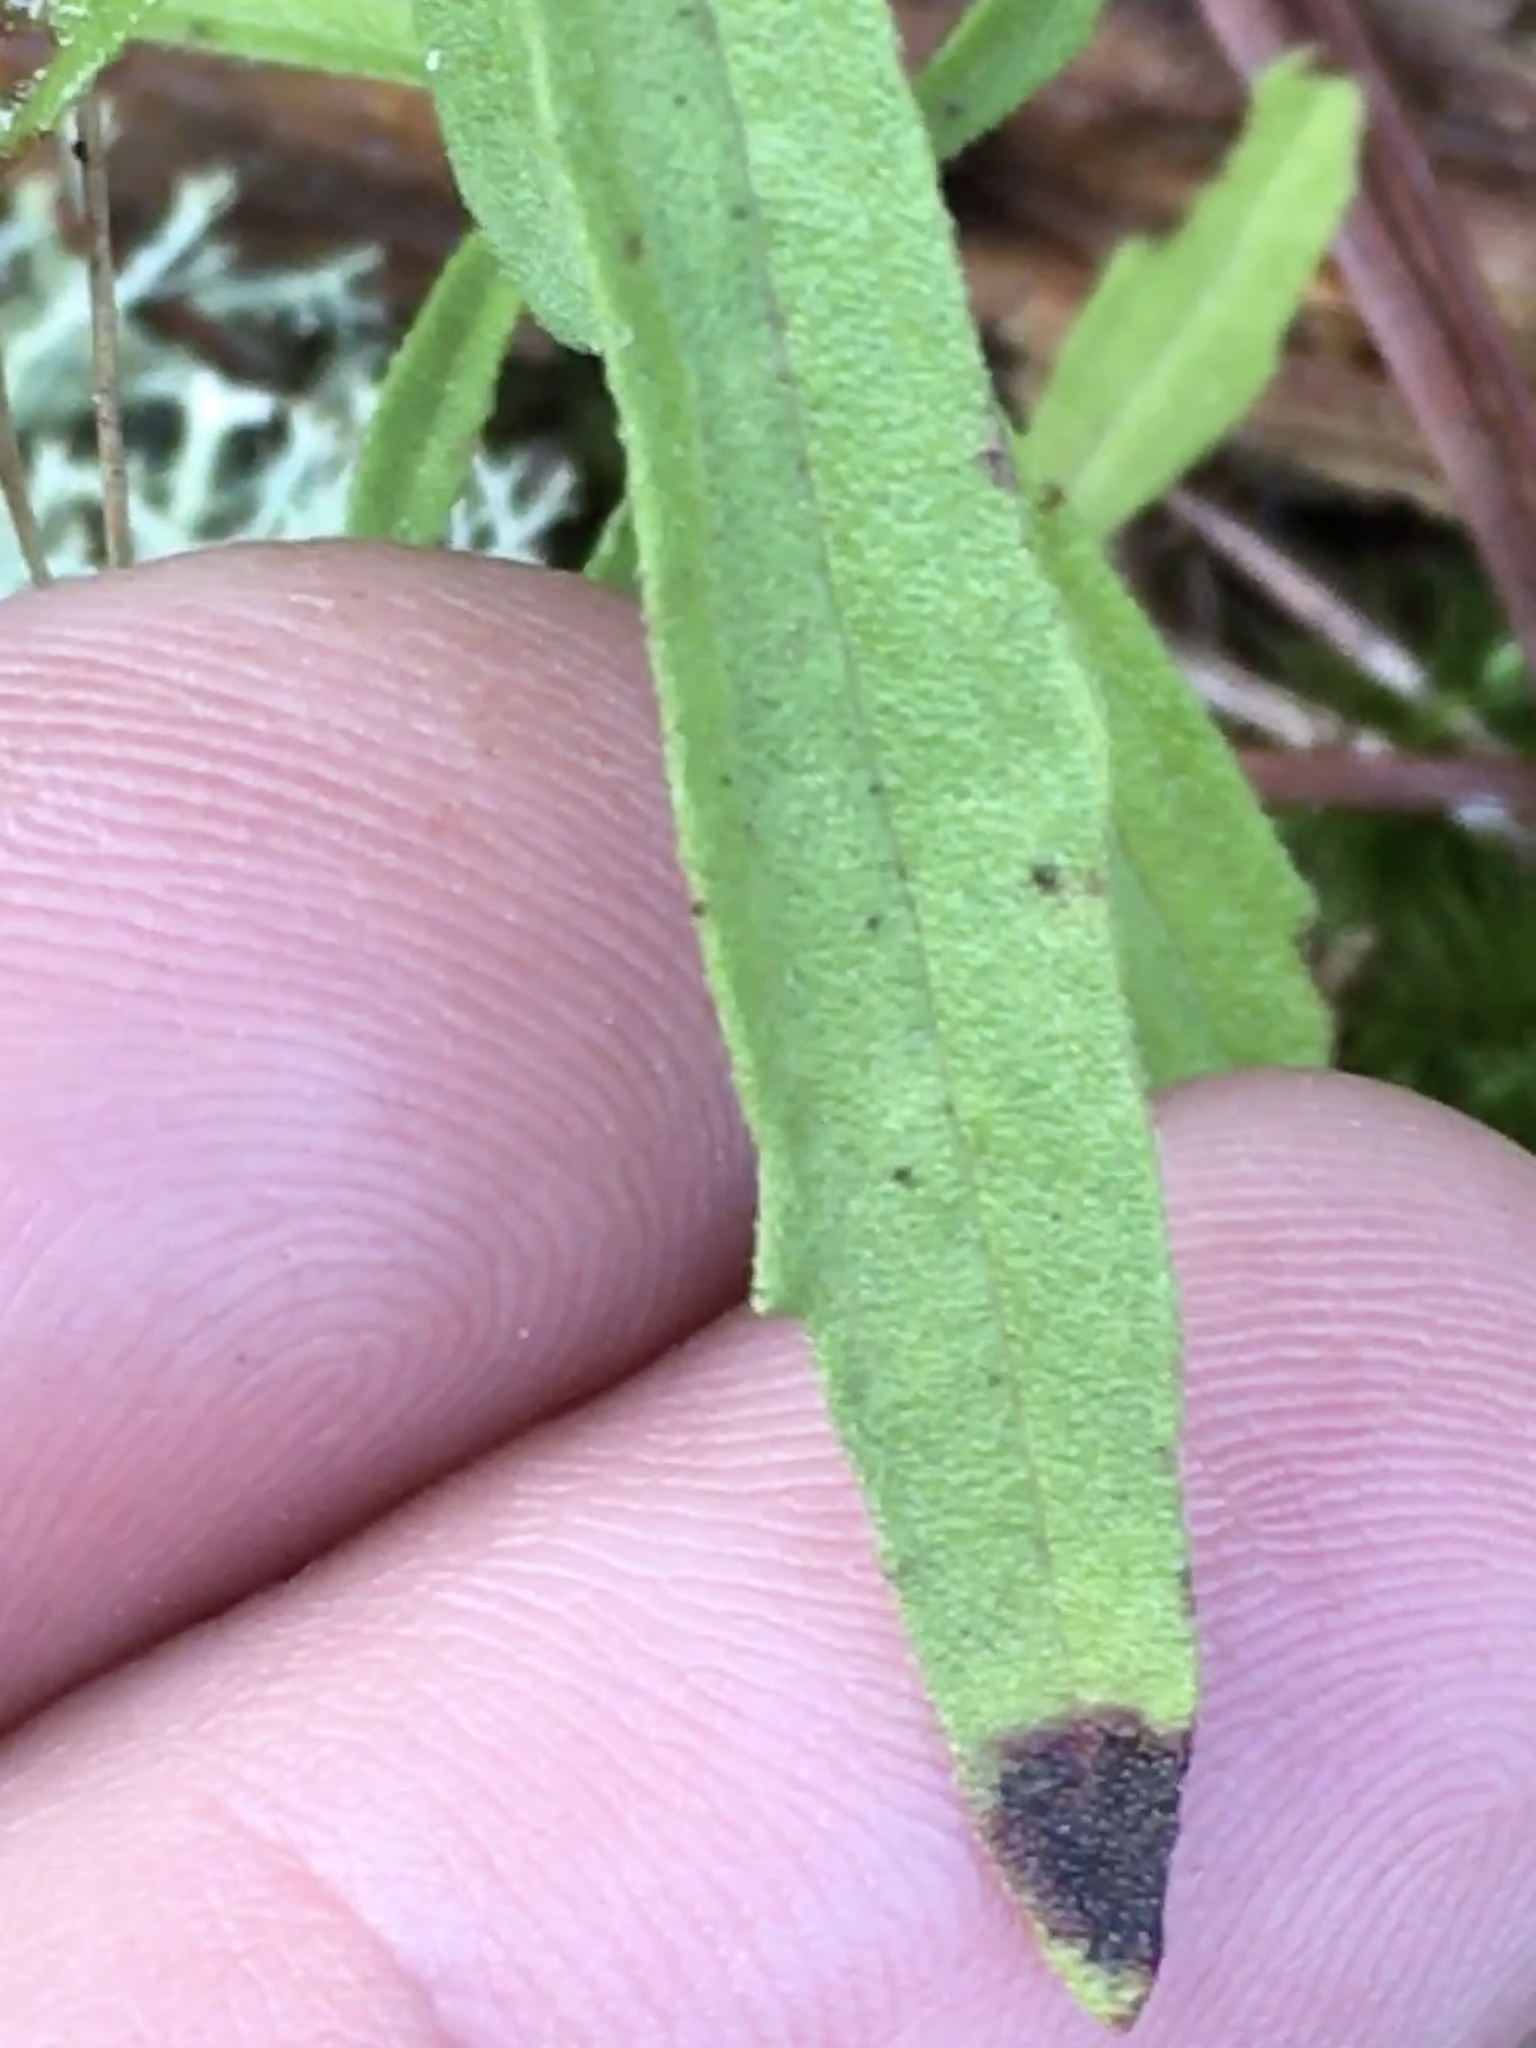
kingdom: Plantae
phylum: Tracheophyta
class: Magnoliopsida
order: Asterales
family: Asteraceae
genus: Eupatorium
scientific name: Eupatorium torreyanum
